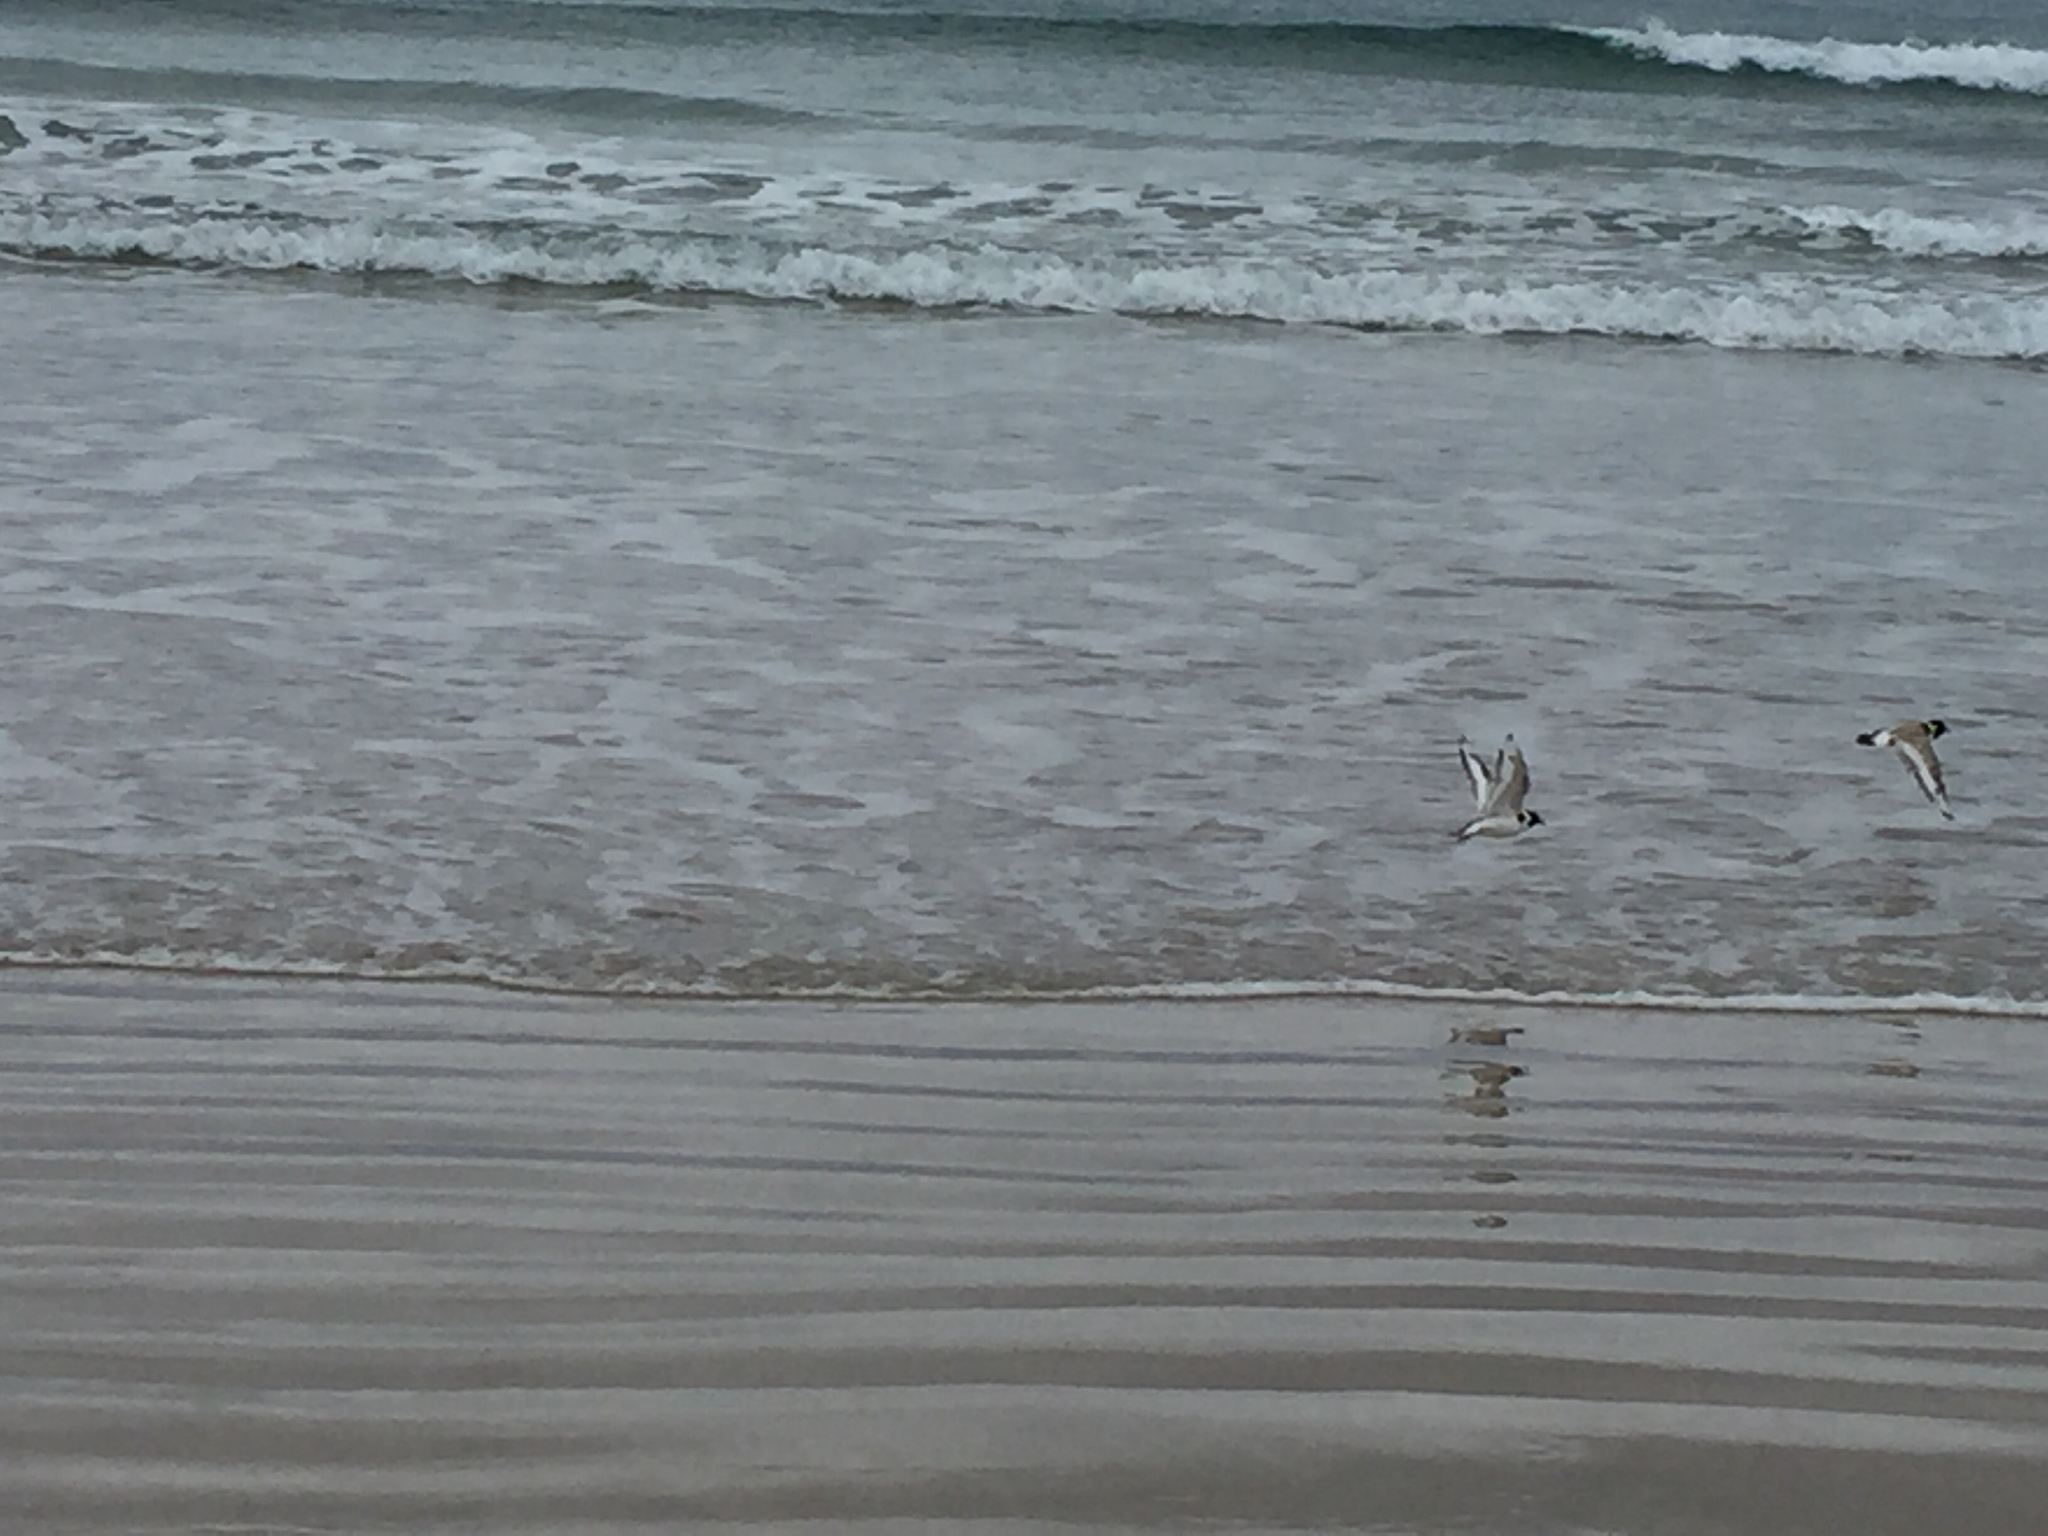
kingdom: Animalia
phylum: Chordata
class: Aves
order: Charadriiformes
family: Charadriidae
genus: Thinornis
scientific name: Thinornis cucullatus
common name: Hooded dotterel
